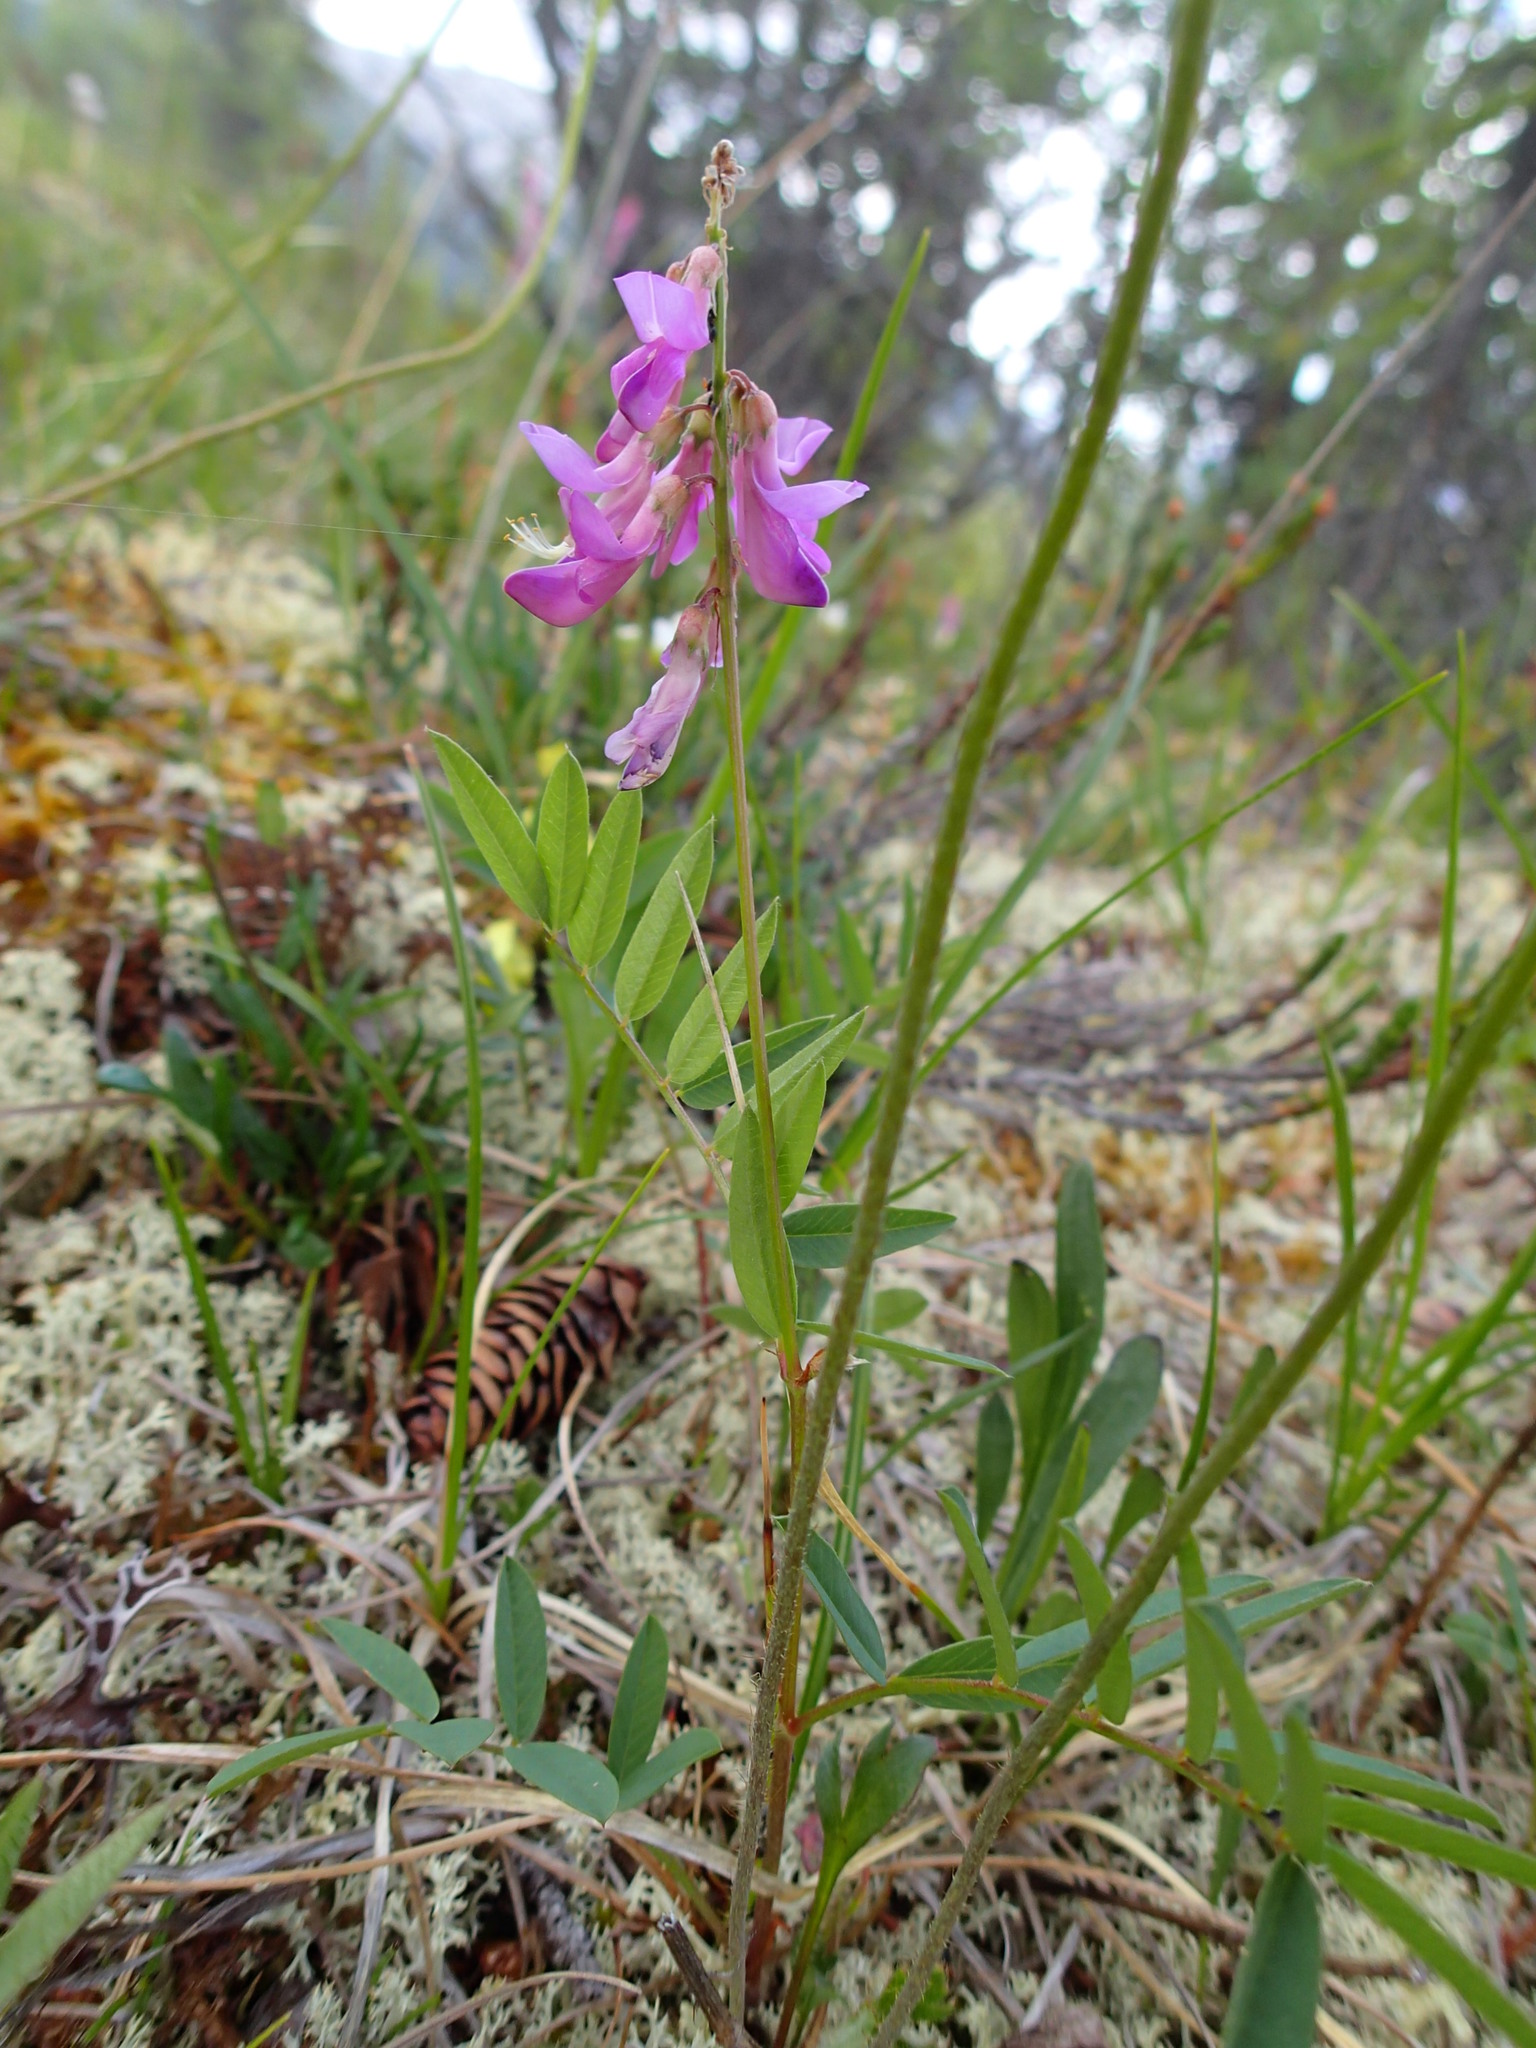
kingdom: Plantae
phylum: Tracheophyta
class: Magnoliopsida
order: Fabales
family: Fabaceae
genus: Hedysarum
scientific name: Hedysarum alpinum
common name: Alpine sweet-vetch
